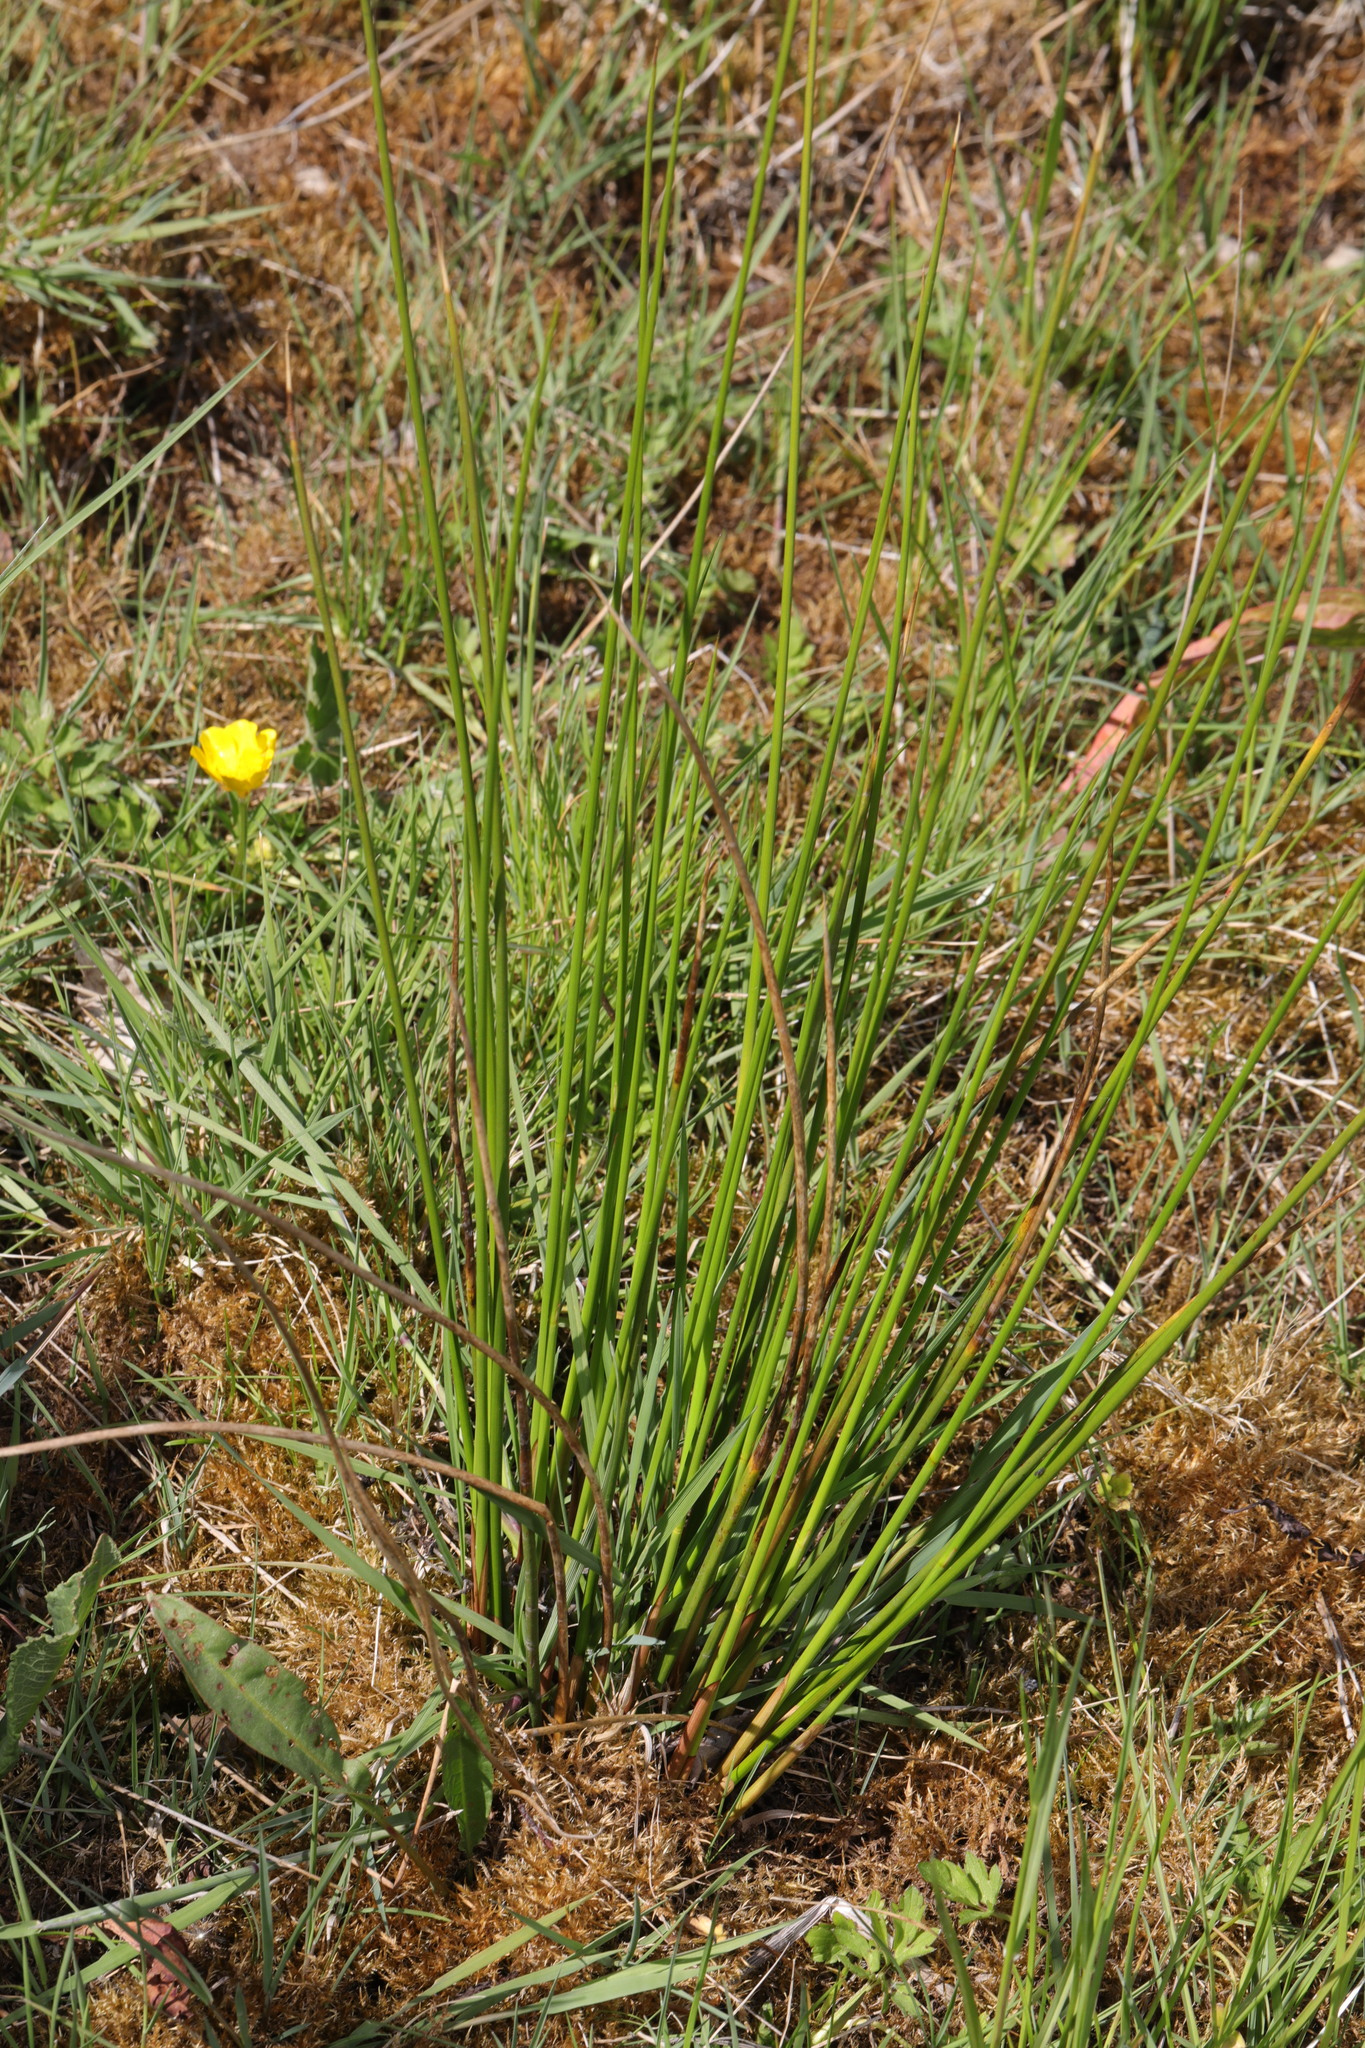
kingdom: Plantae
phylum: Tracheophyta
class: Liliopsida
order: Poales
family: Juncaceae
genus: Juncus
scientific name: Juncus effusus
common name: Soft rush
